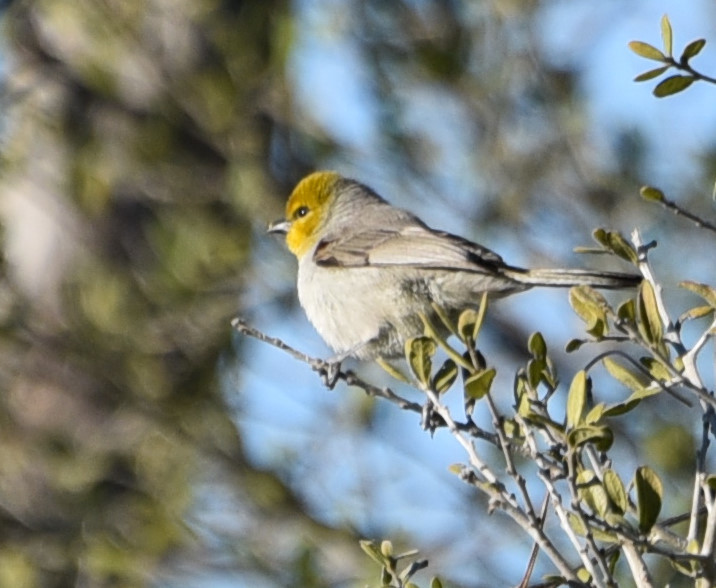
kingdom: Animalia
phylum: Chordata
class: Aves
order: Passeriformes
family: Remizidae
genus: Auriparus
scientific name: Auriparus flaviceps
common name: Verdin
